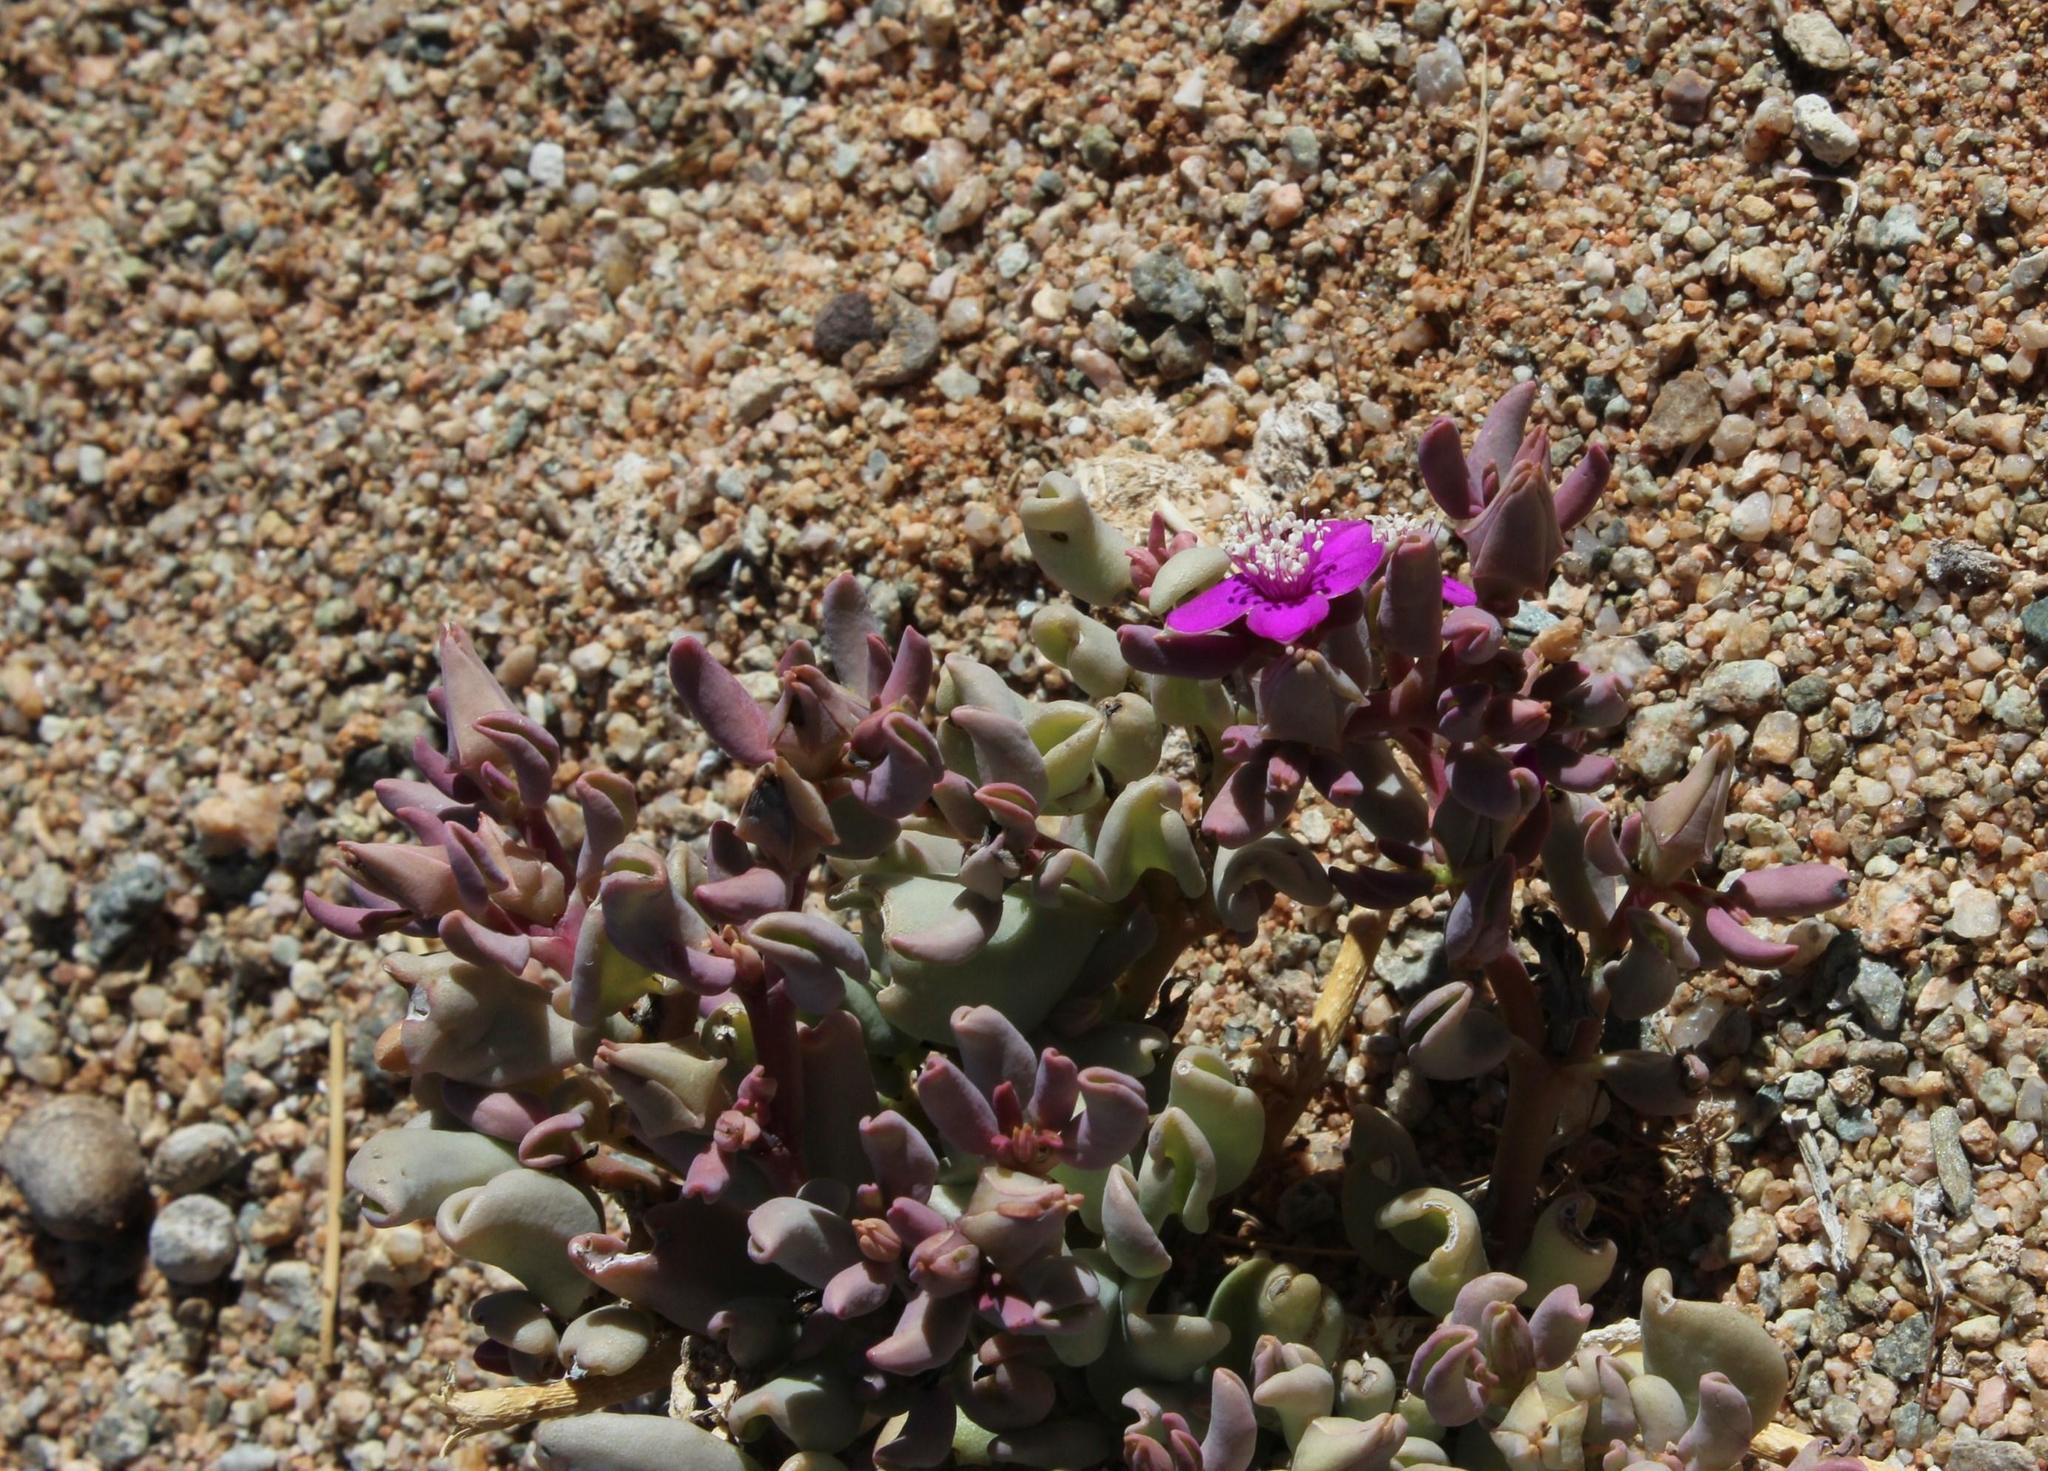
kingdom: Plantae
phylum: Tracheophyta
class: Magnoliopsida
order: Caryophyllales
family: Aizoaceae
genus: Sesuvium
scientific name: Sesuvium sesuvioides
